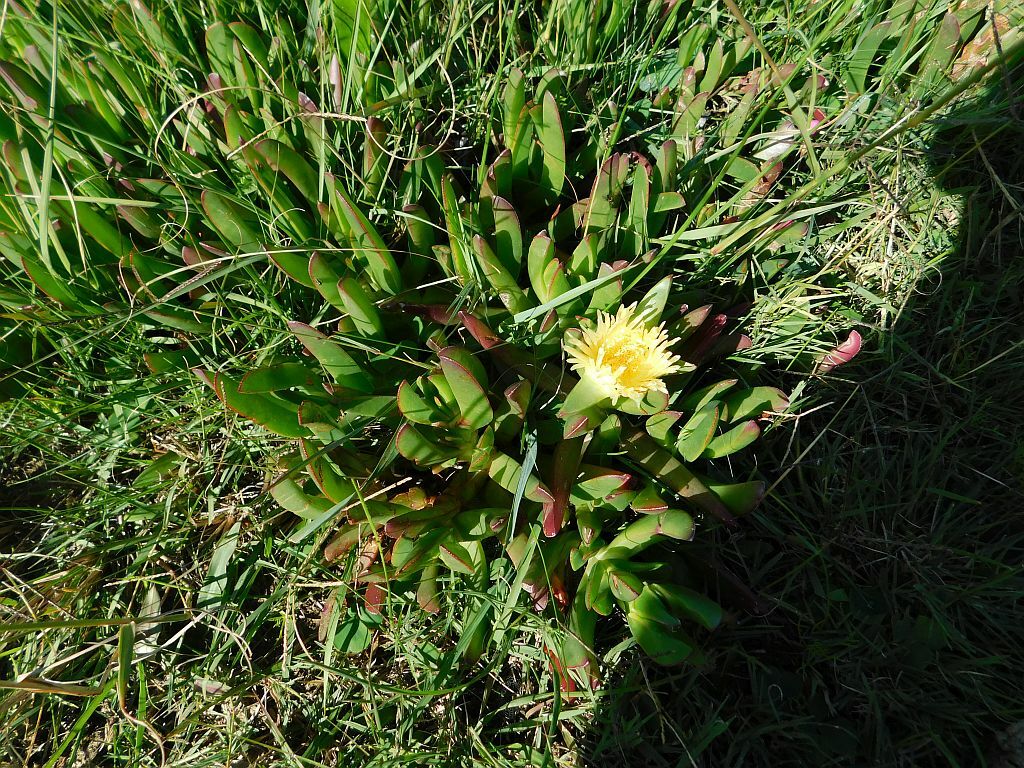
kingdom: Plantae
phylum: Tracheophyta
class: Magnoliopsida
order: Caryophyllales
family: Aizoaceae
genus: Carpobrotus
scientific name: Carpobrotus edulis
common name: Hottentot-fig
